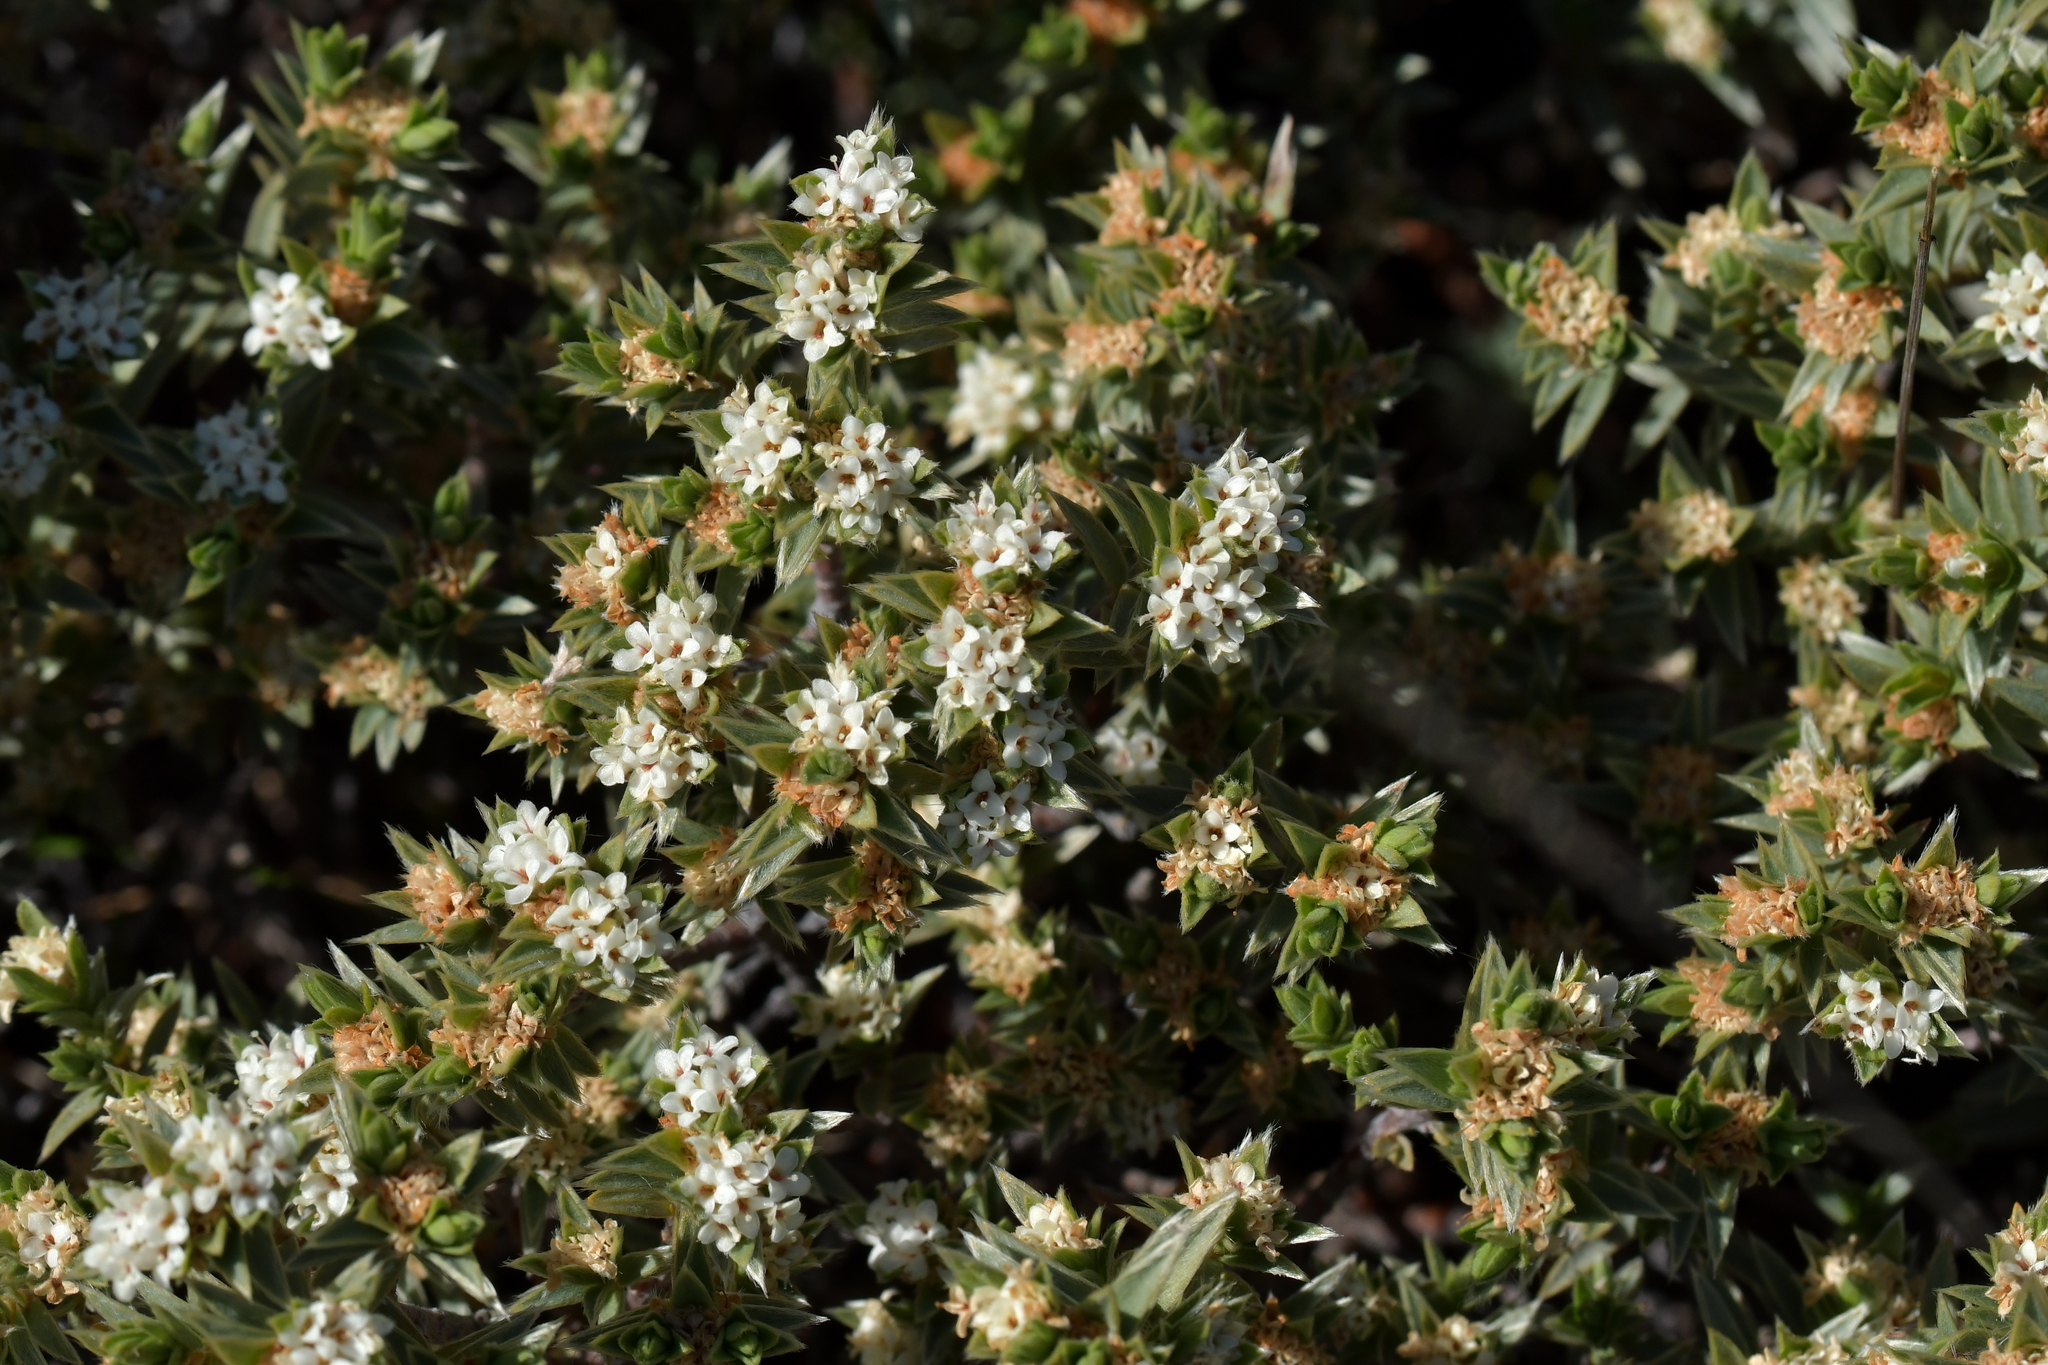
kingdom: Plantae
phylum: Tracheophyta
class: Magnoliopsida
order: Malvales
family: Thymelaeaceae
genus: Pimelea
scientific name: Pimelea aridula
